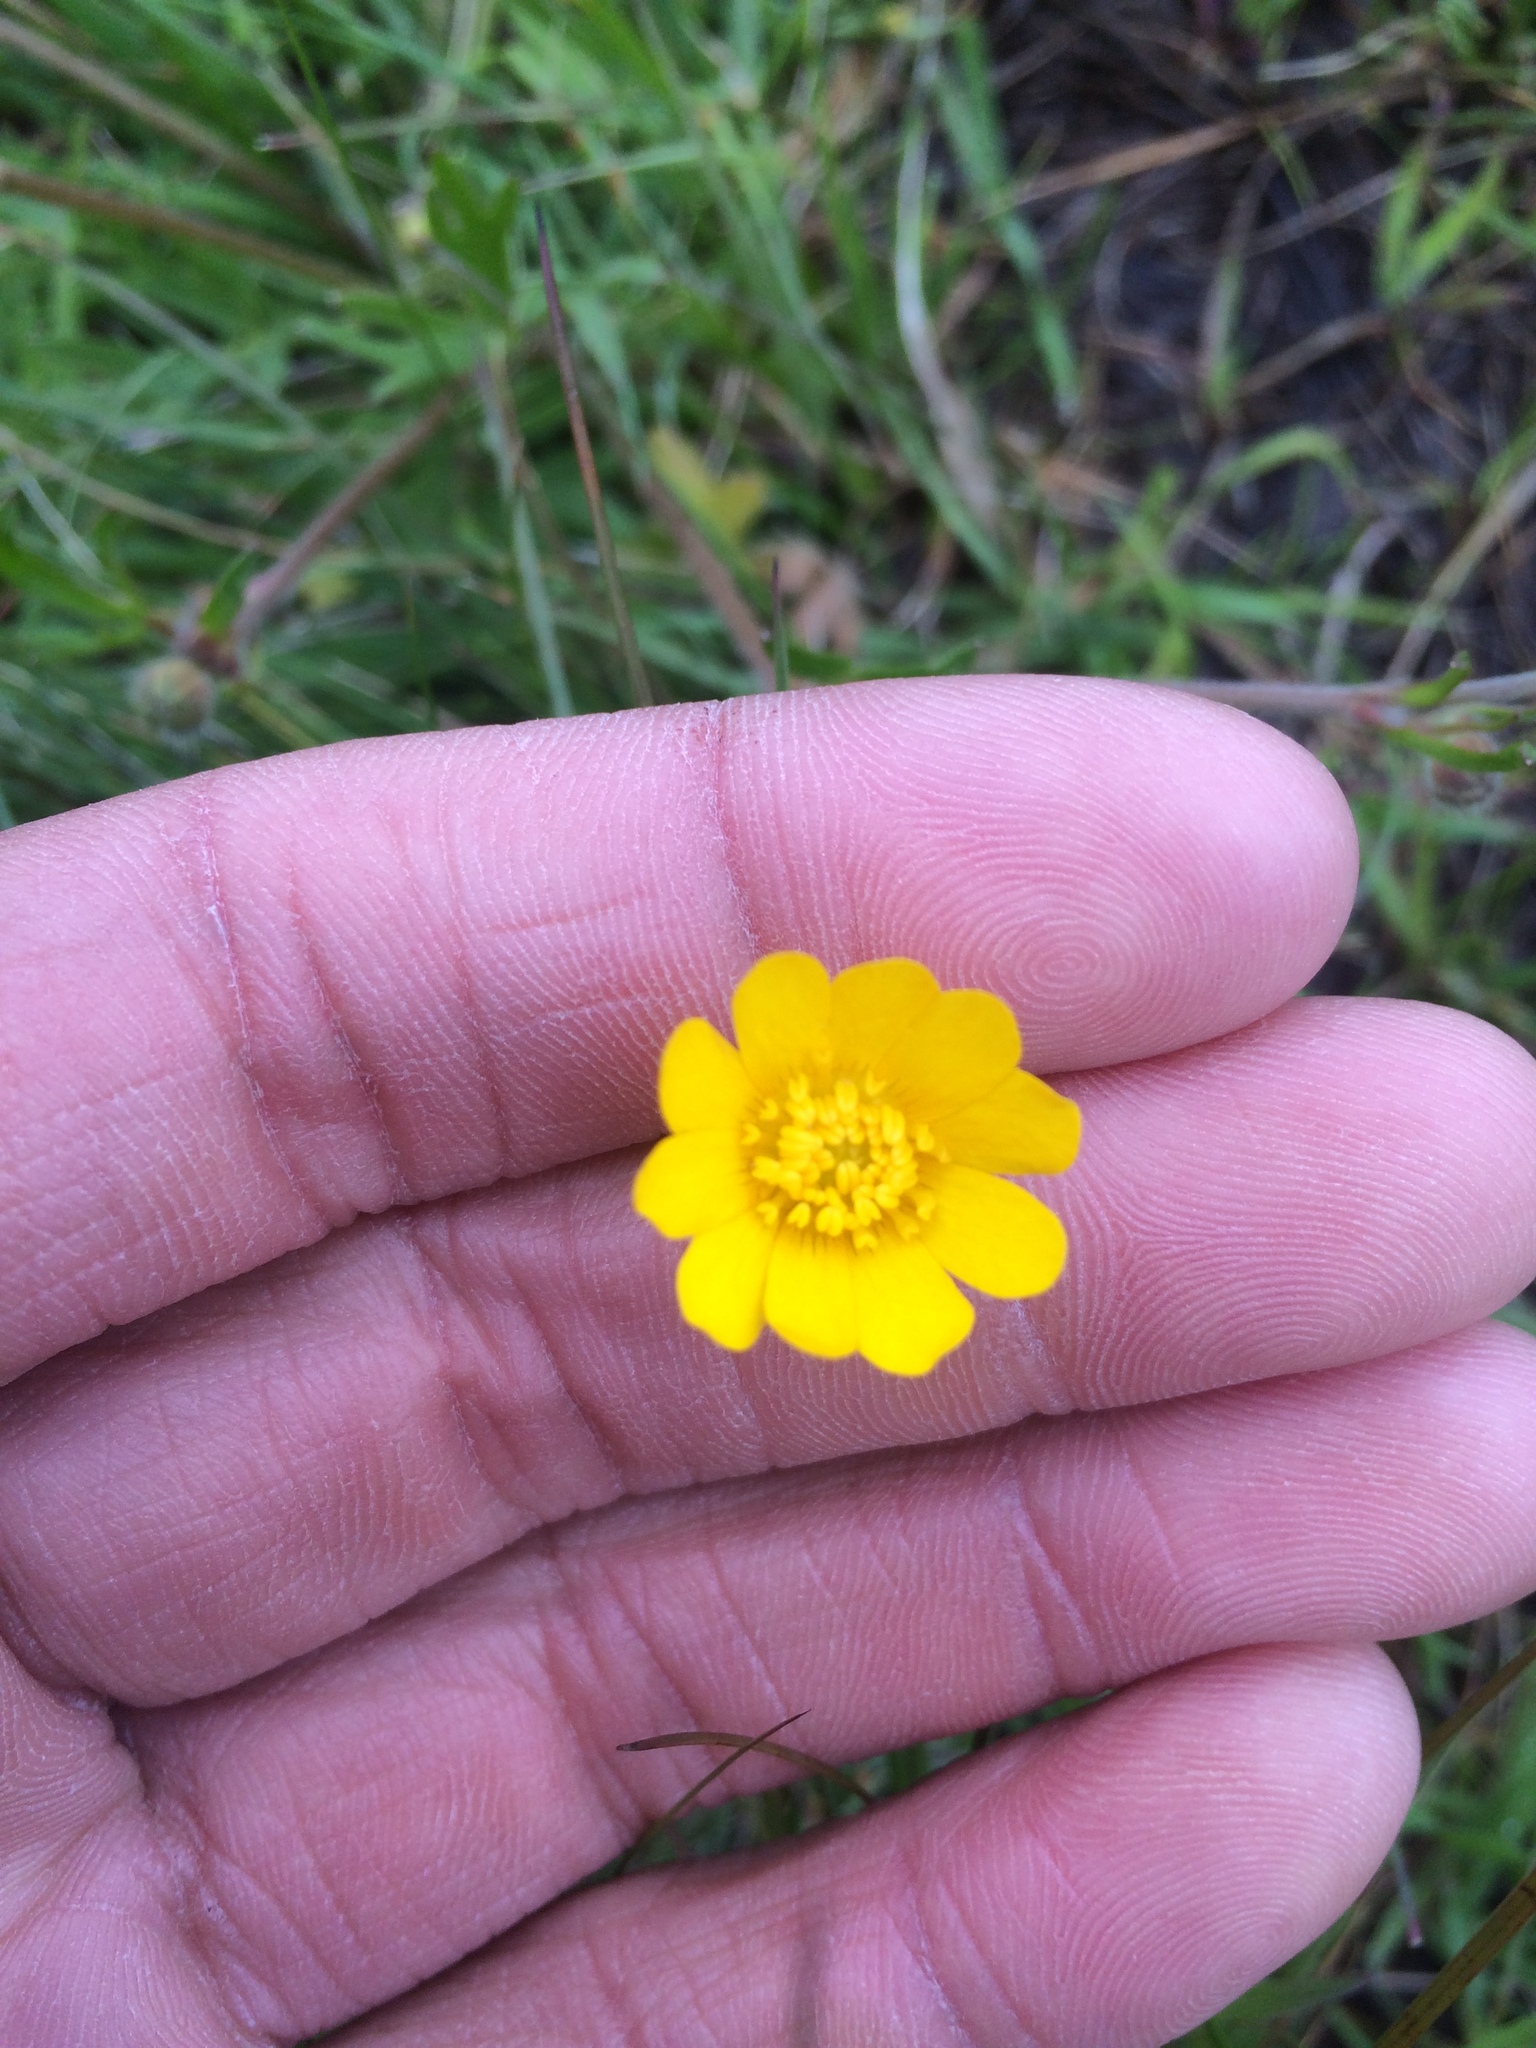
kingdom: Plantae
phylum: Tracheophyta
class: Magnoliopsida
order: Ranunculales
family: Ranunculaceae
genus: Ranunculus
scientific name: Ranunculus californicus
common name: California buttercup
